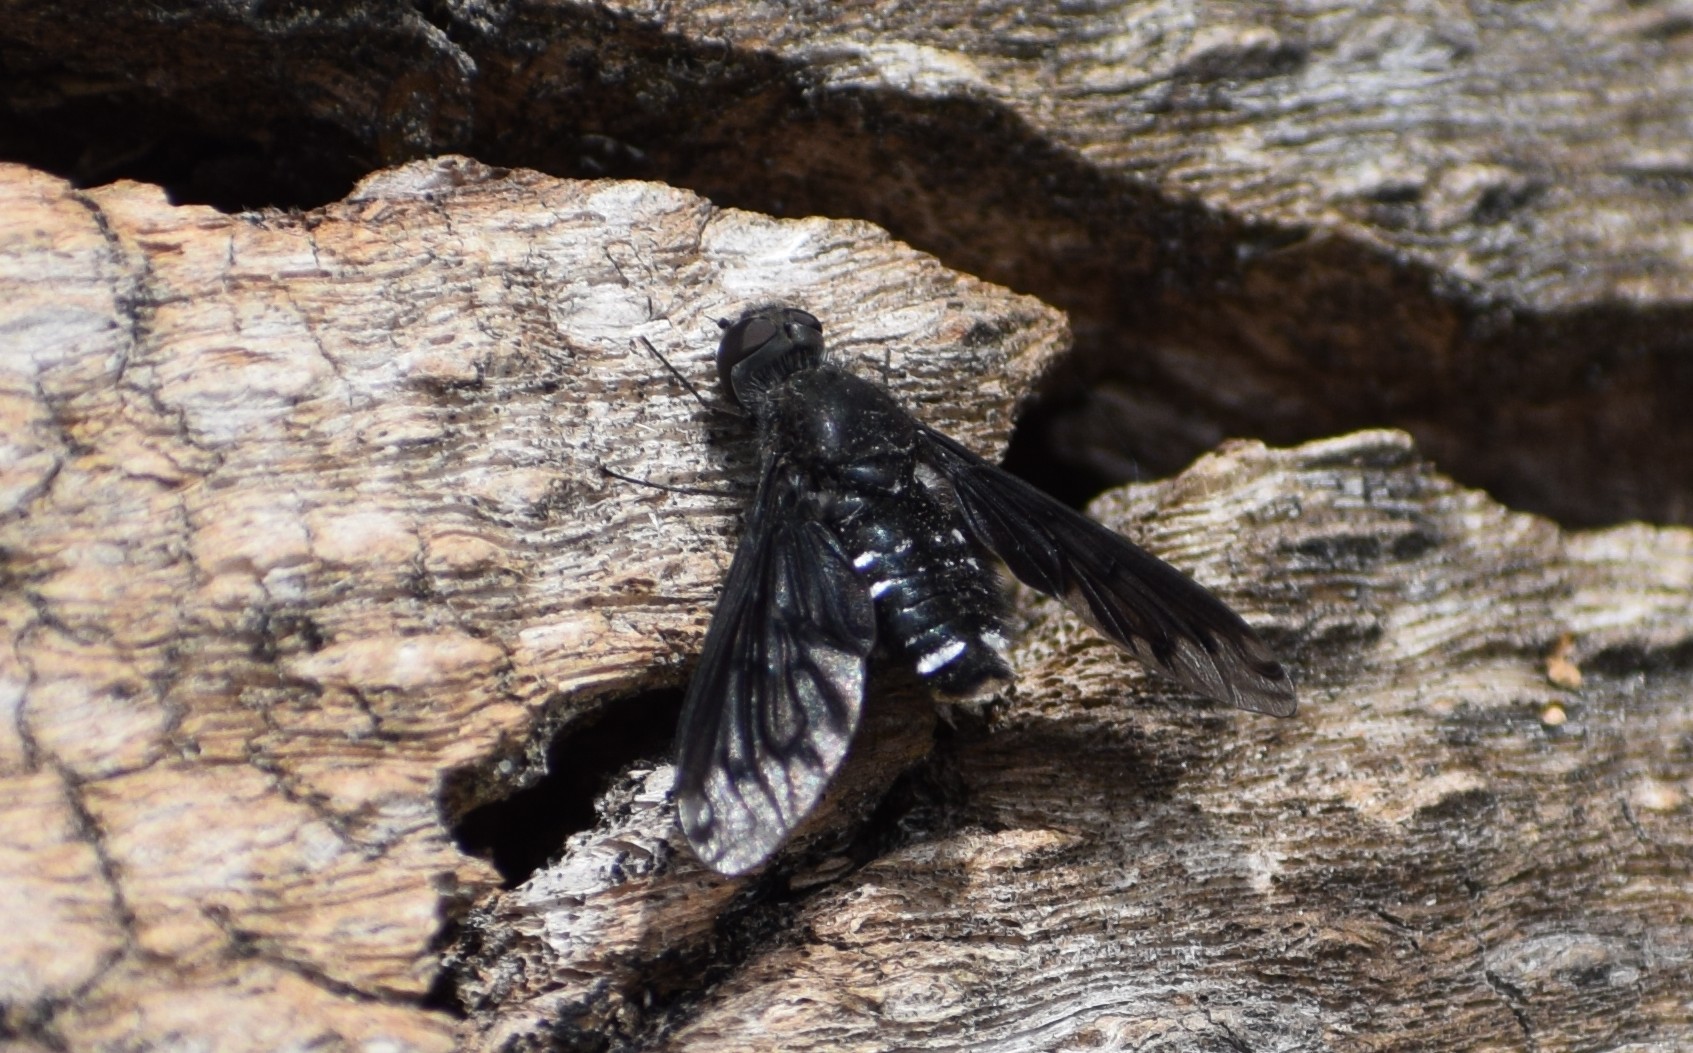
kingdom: Animalia
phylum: Arthropoda
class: Insecta
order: Diptera
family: Bombyliidae
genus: Anthrax
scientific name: Anthrax anthrax
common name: Anthracite bee-fly
